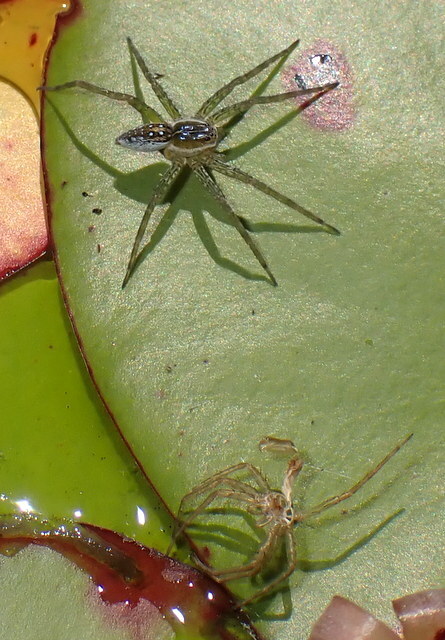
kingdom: Animalia
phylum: Arthropoda
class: Arachnida
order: Araneae
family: Pisauridae
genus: Dolomedes
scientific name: Dolomedes triton
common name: Six-spotted fishing spider
